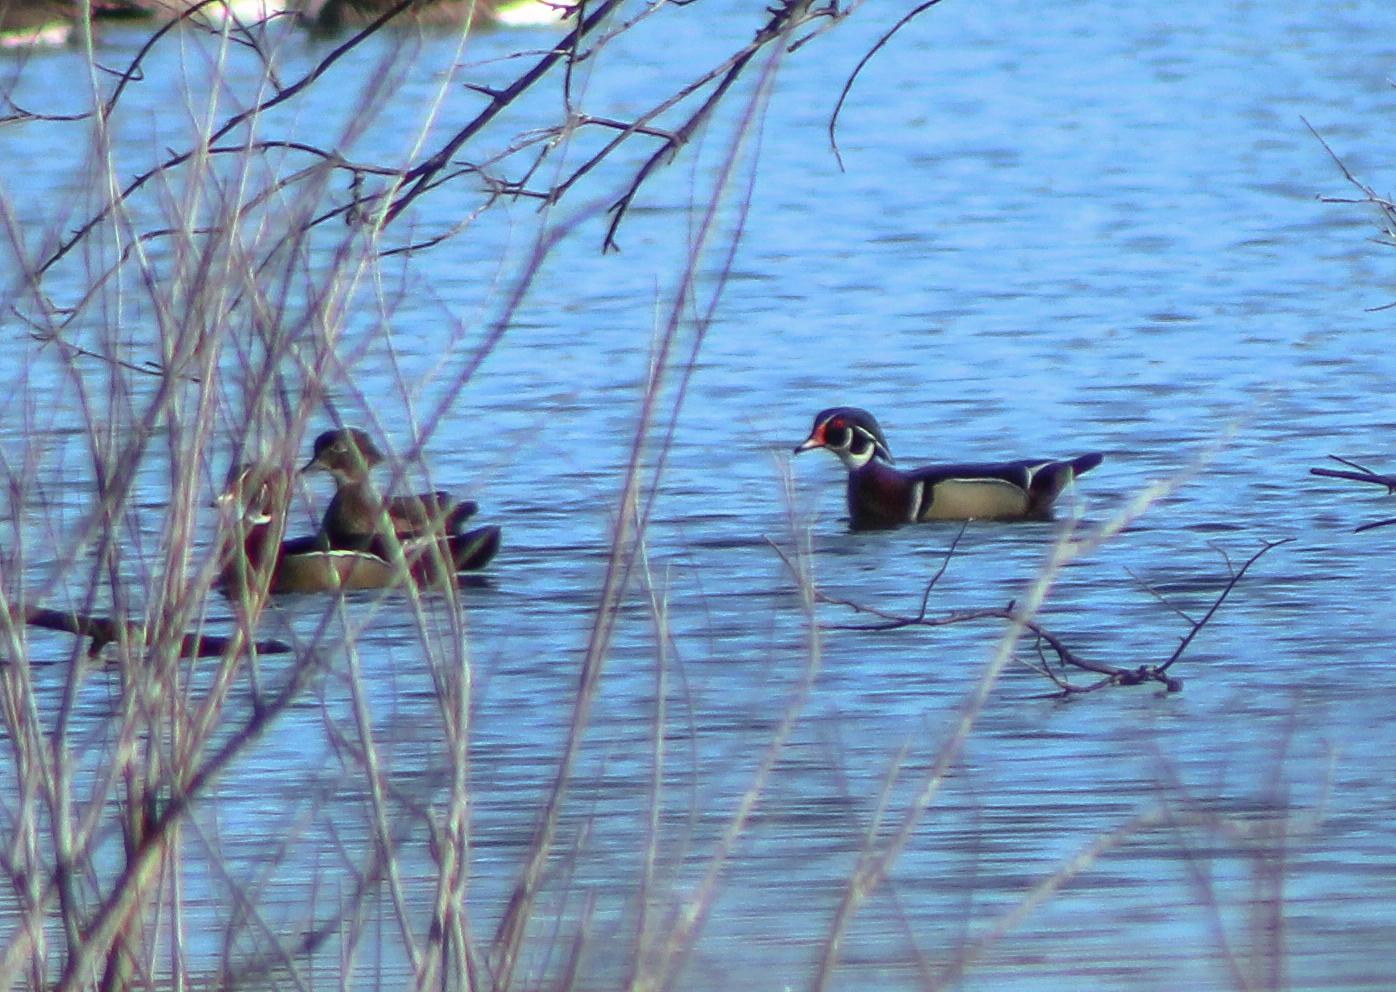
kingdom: Animalia
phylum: Chordata
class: Aves
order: Anseriformes
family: Anatidae
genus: Aix
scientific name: Aix sponsa
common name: Wood duck
